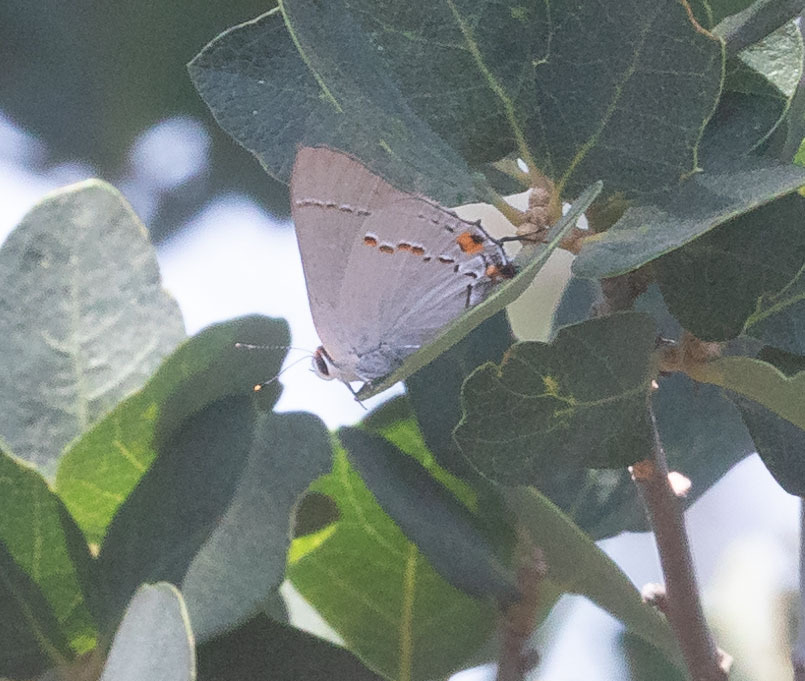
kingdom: Animalia
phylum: Arthropoda
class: Insecta
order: Lepidoptera
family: Lycaenidae
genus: Strymon
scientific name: Strymon melinus
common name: Gray hairstreak
